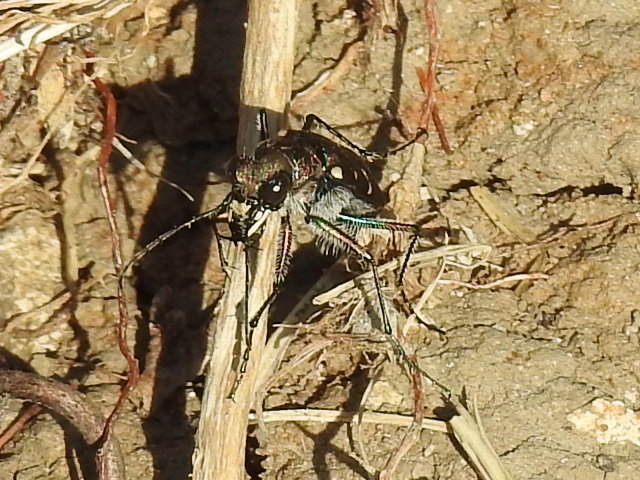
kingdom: Animalia
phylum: Arthropoda
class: Insecta
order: Coleoptera
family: Carabidae
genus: Cicindela
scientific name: Cicindela duodecimguttata
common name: Twelve-spotted tiger beetle
